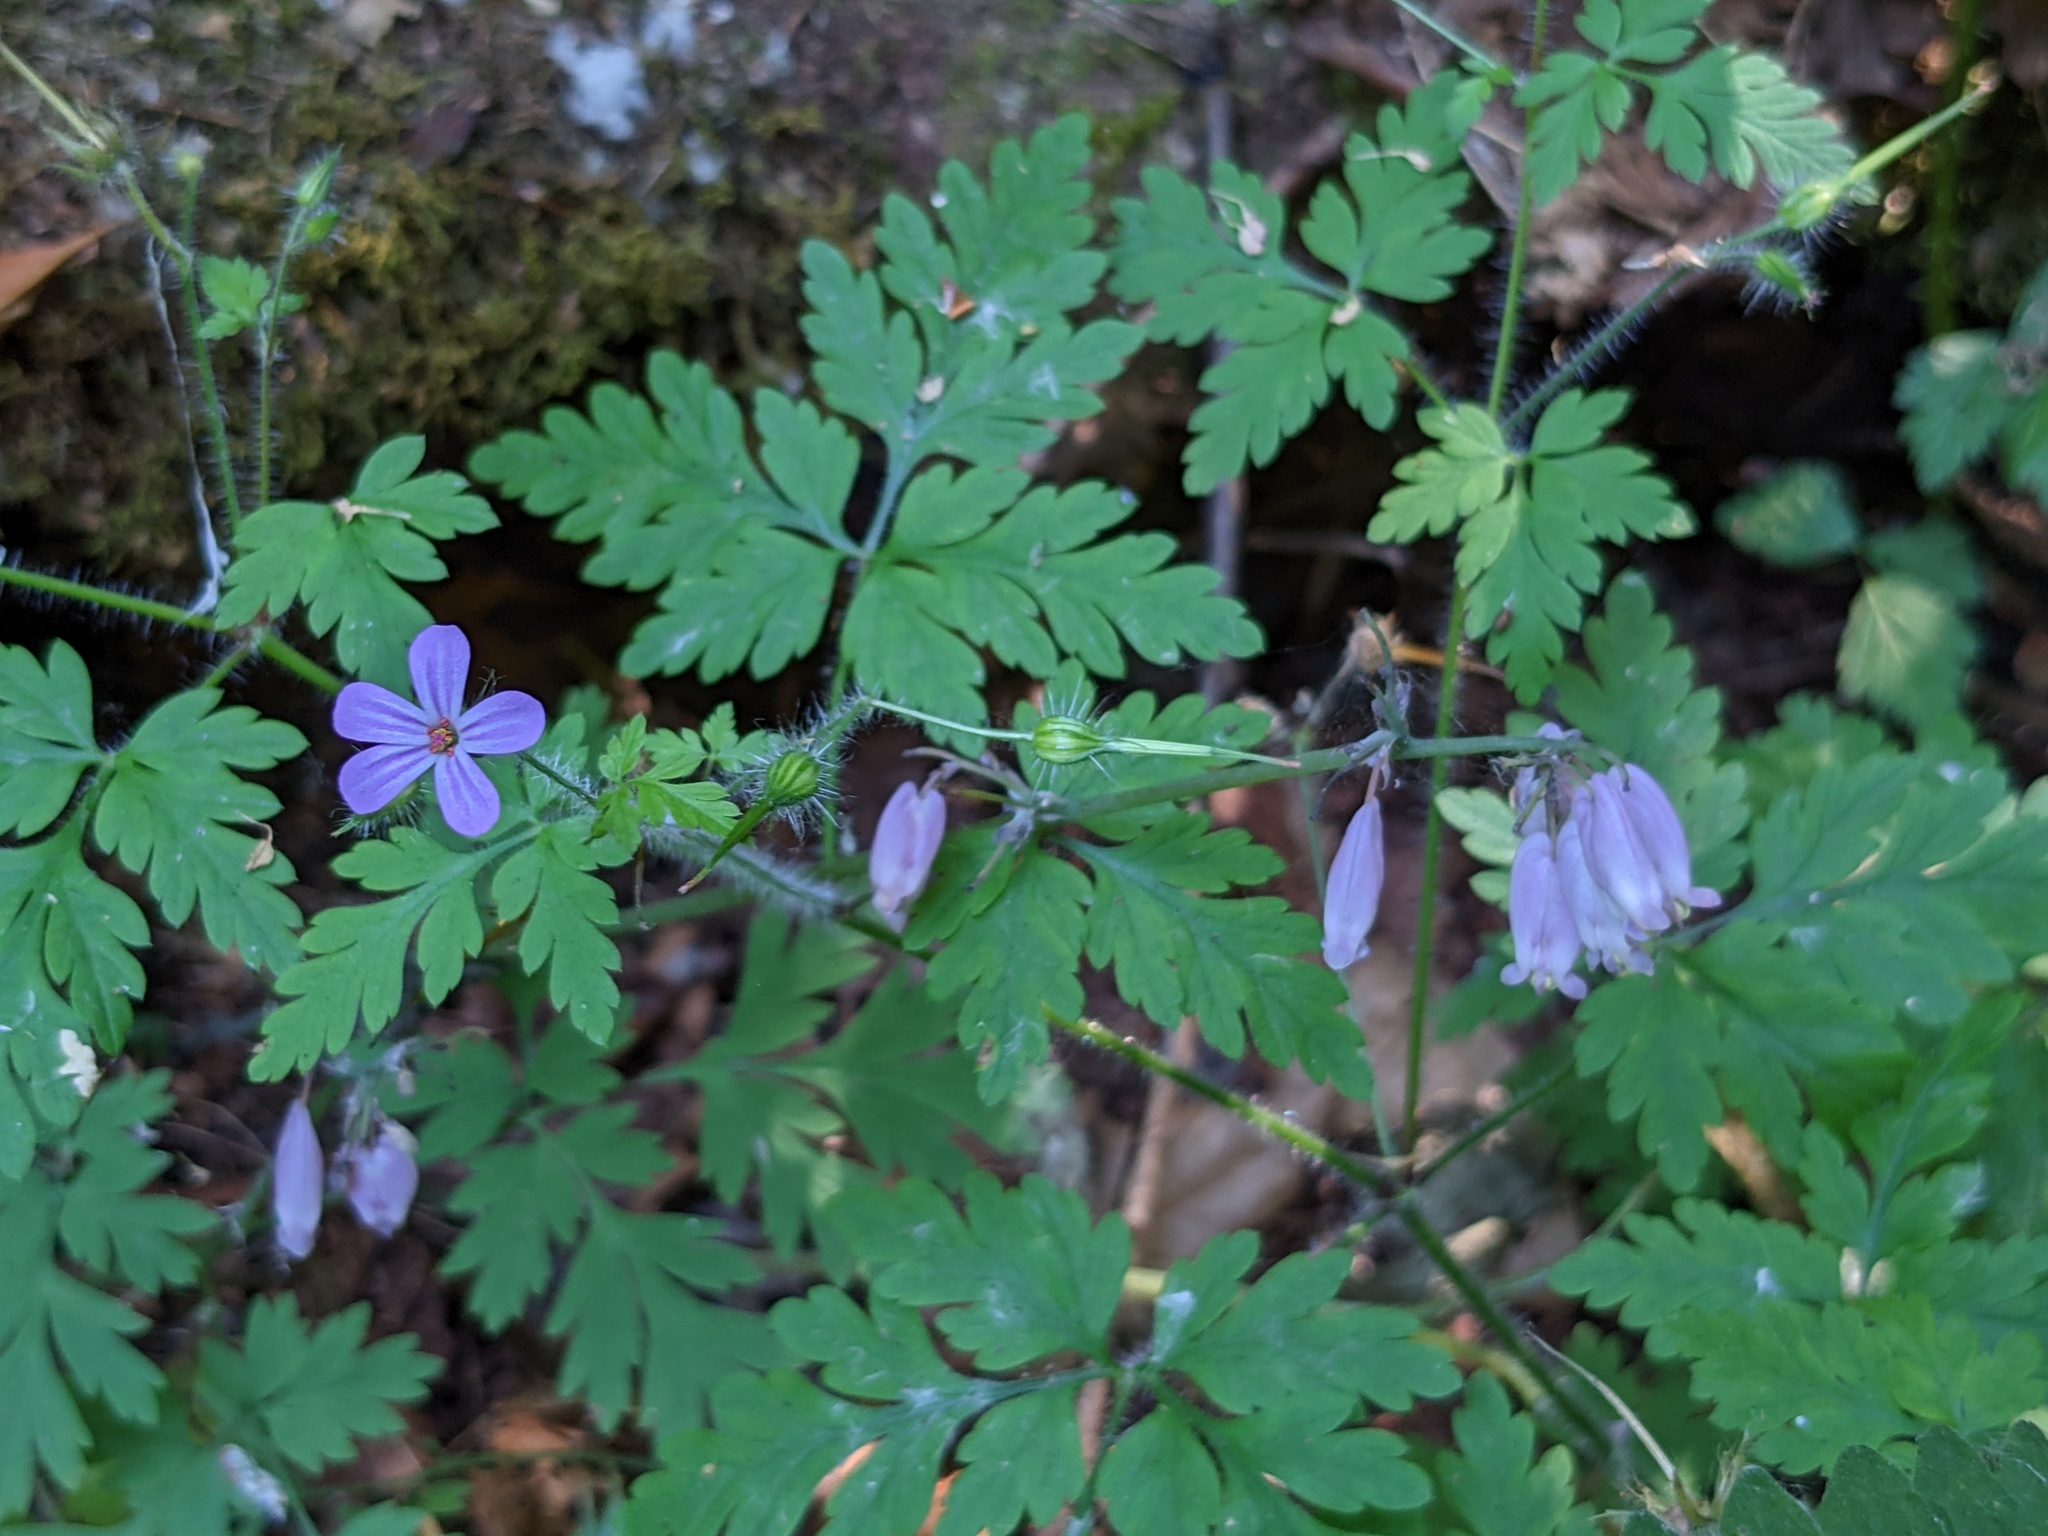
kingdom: Plantae
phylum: Tracheophyta
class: Magnoliopsida
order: Geraniales
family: Geraniaceae
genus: Geranium
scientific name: Geranium robertianum
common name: Herb-robert
